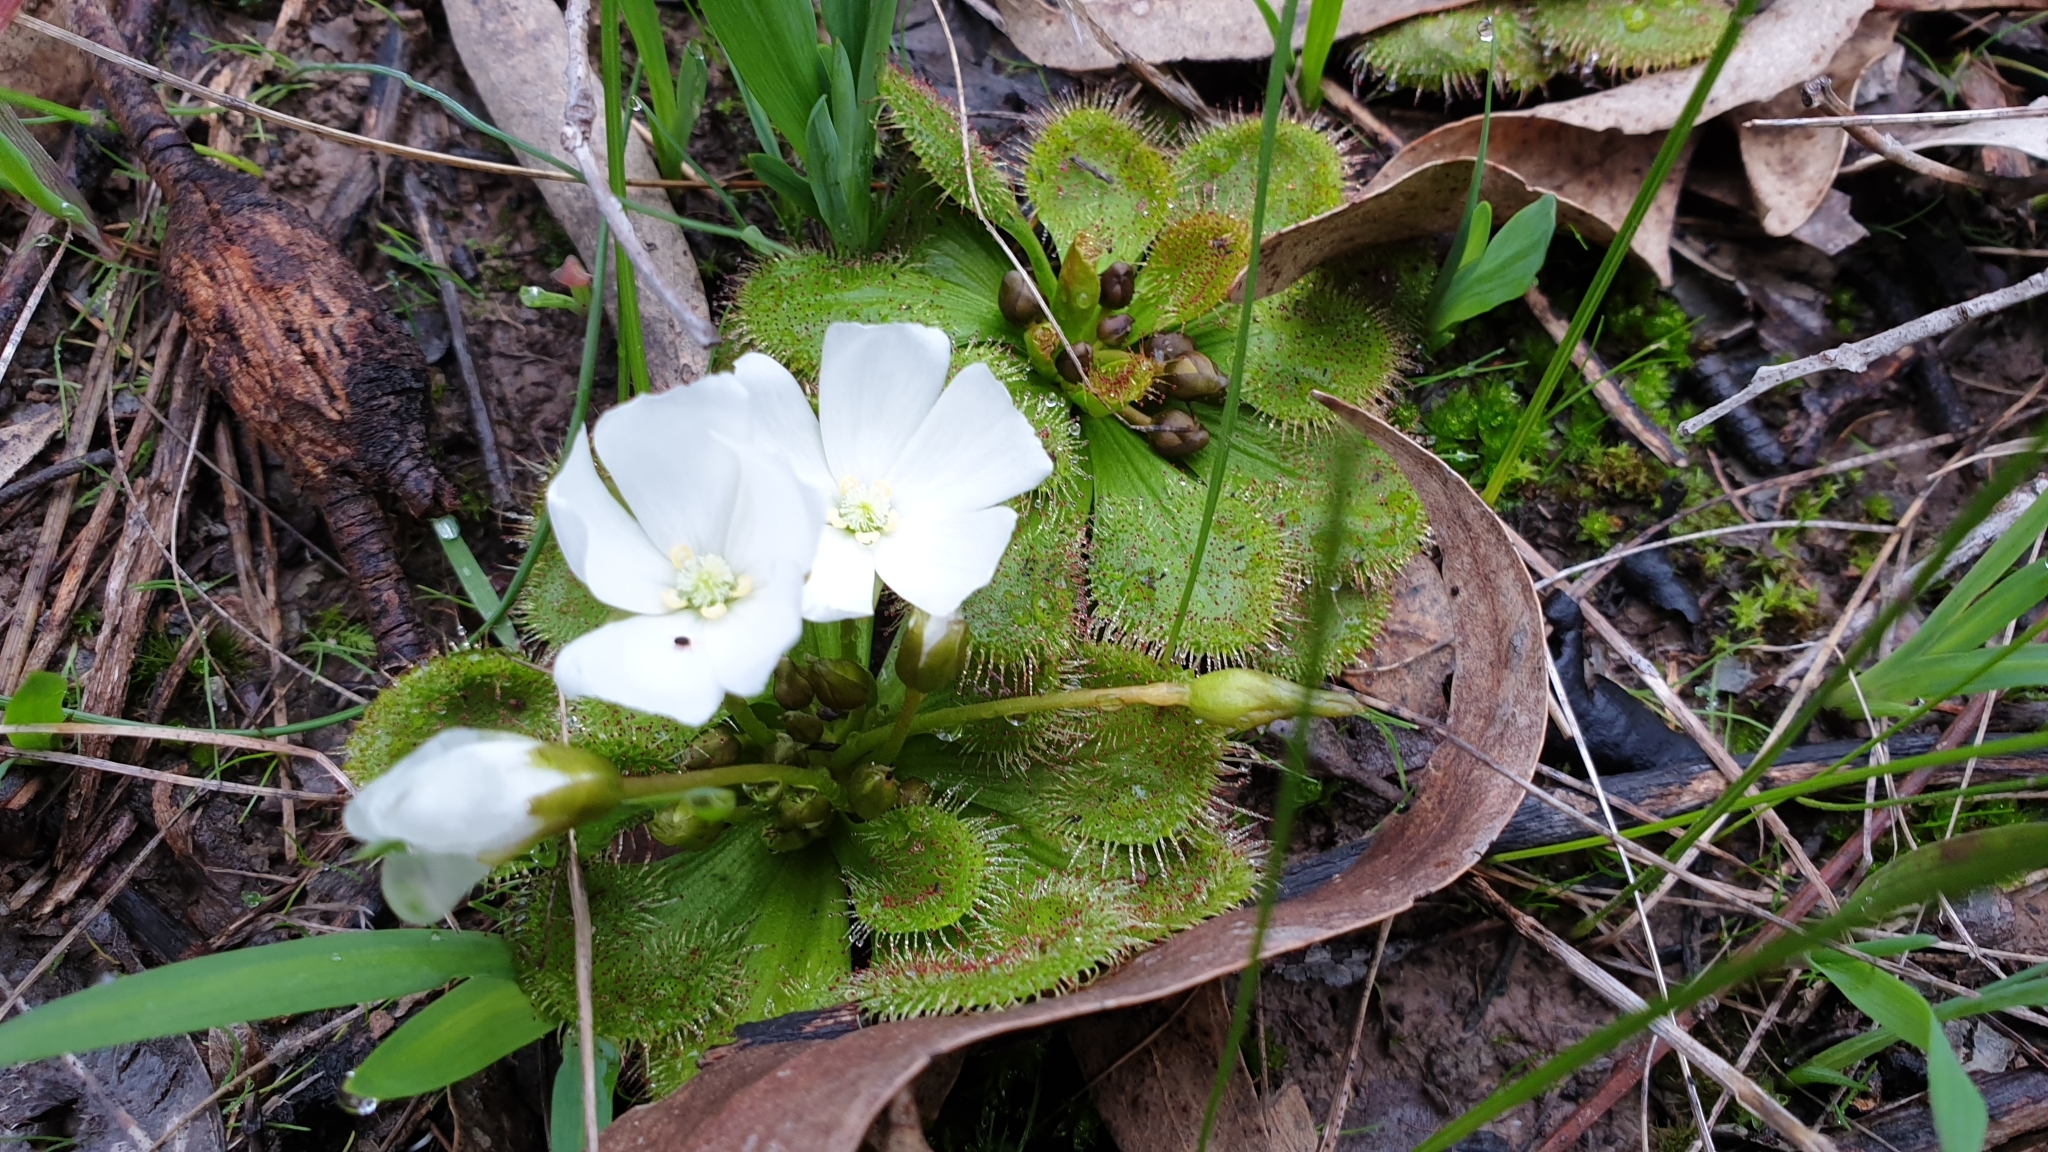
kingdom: Plantae
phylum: Tracheophyta
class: Magnoliopsida
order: Caryophyllales
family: Droseraceae
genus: Drosera
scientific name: Drosera whittakeri
